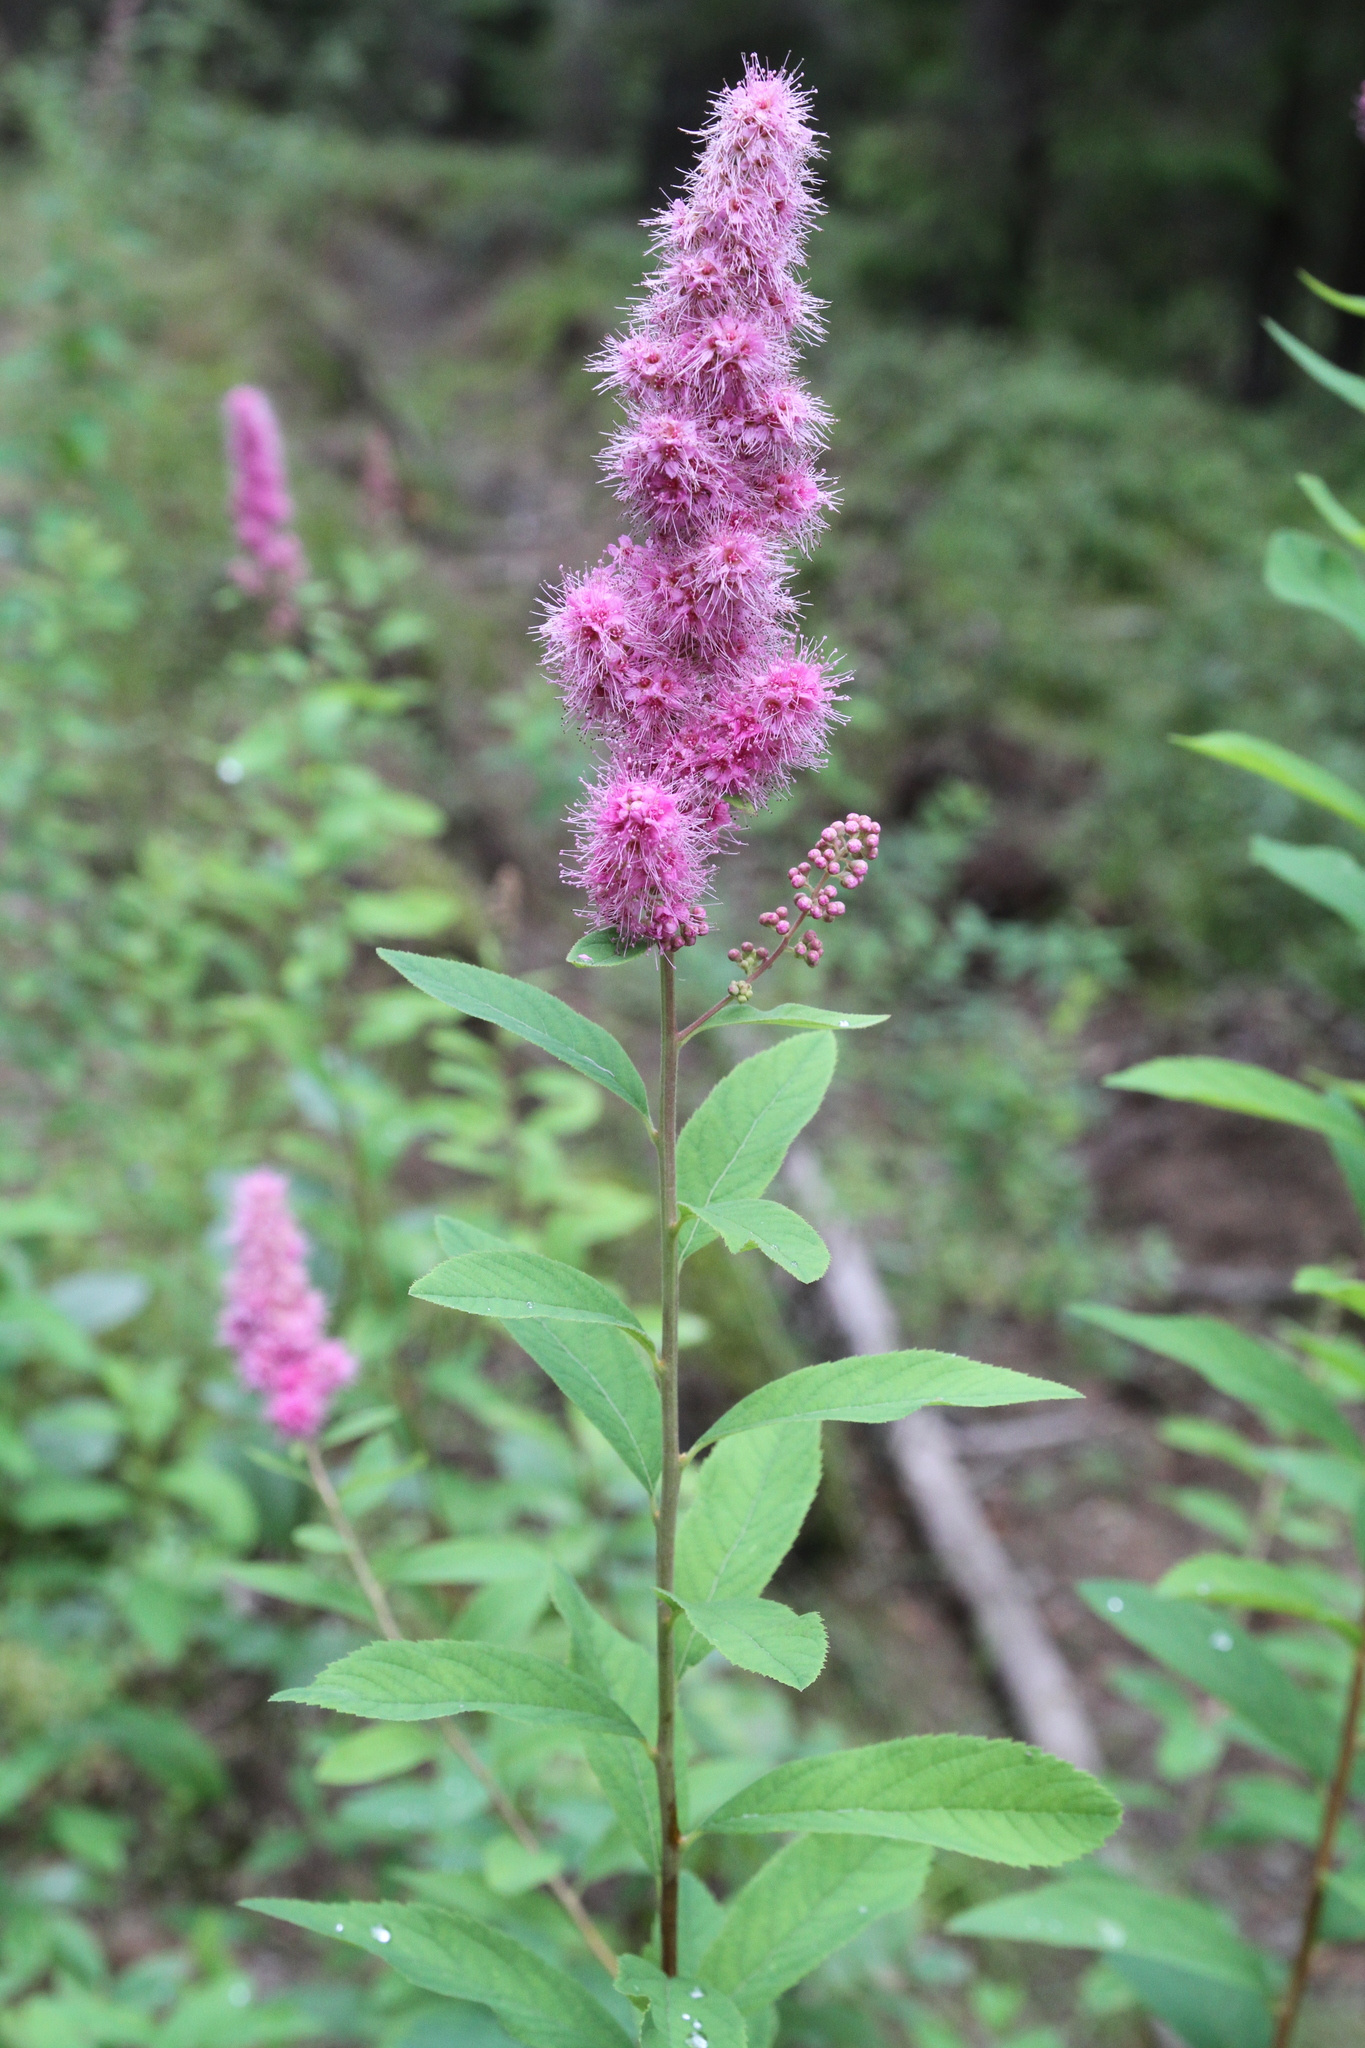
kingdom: Plantae
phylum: Tracheophyta
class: Magnoliopsida
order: Rosales
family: Rosaceae
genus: Spiraea
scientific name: Spiraea douglasii
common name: Steeplebush
